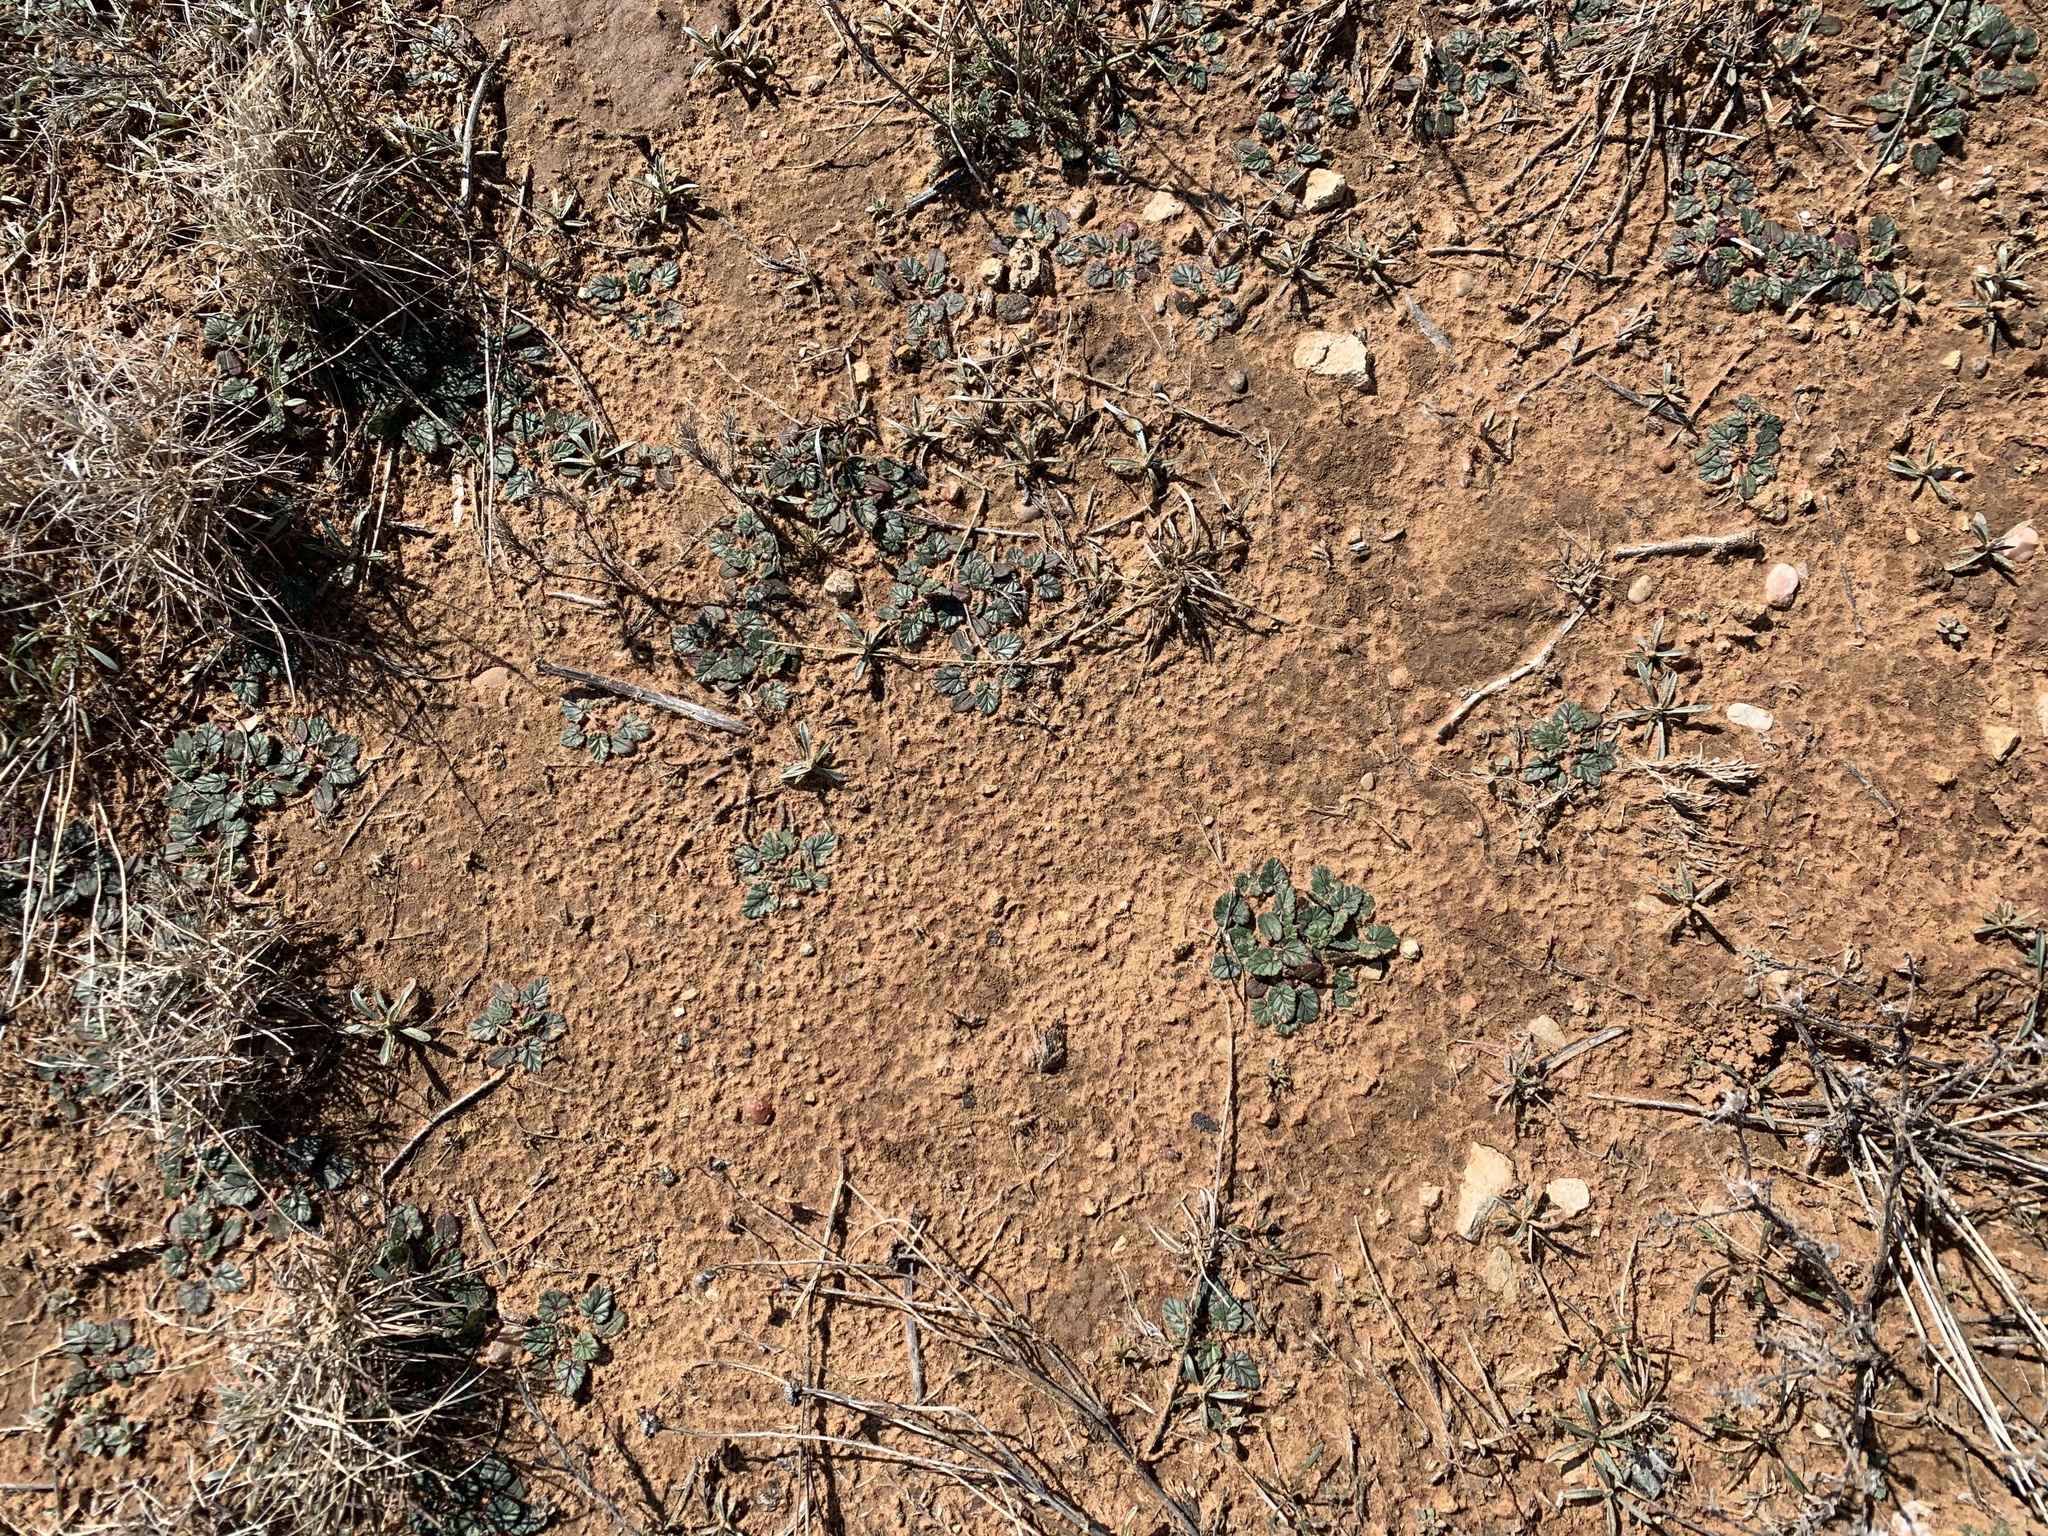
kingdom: Plantae
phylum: Tracheophyta
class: Magnoliopsida
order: Geraniales
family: Geraniaceae
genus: Erodium
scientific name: Erodium texanum
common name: Texas stork's-bill
